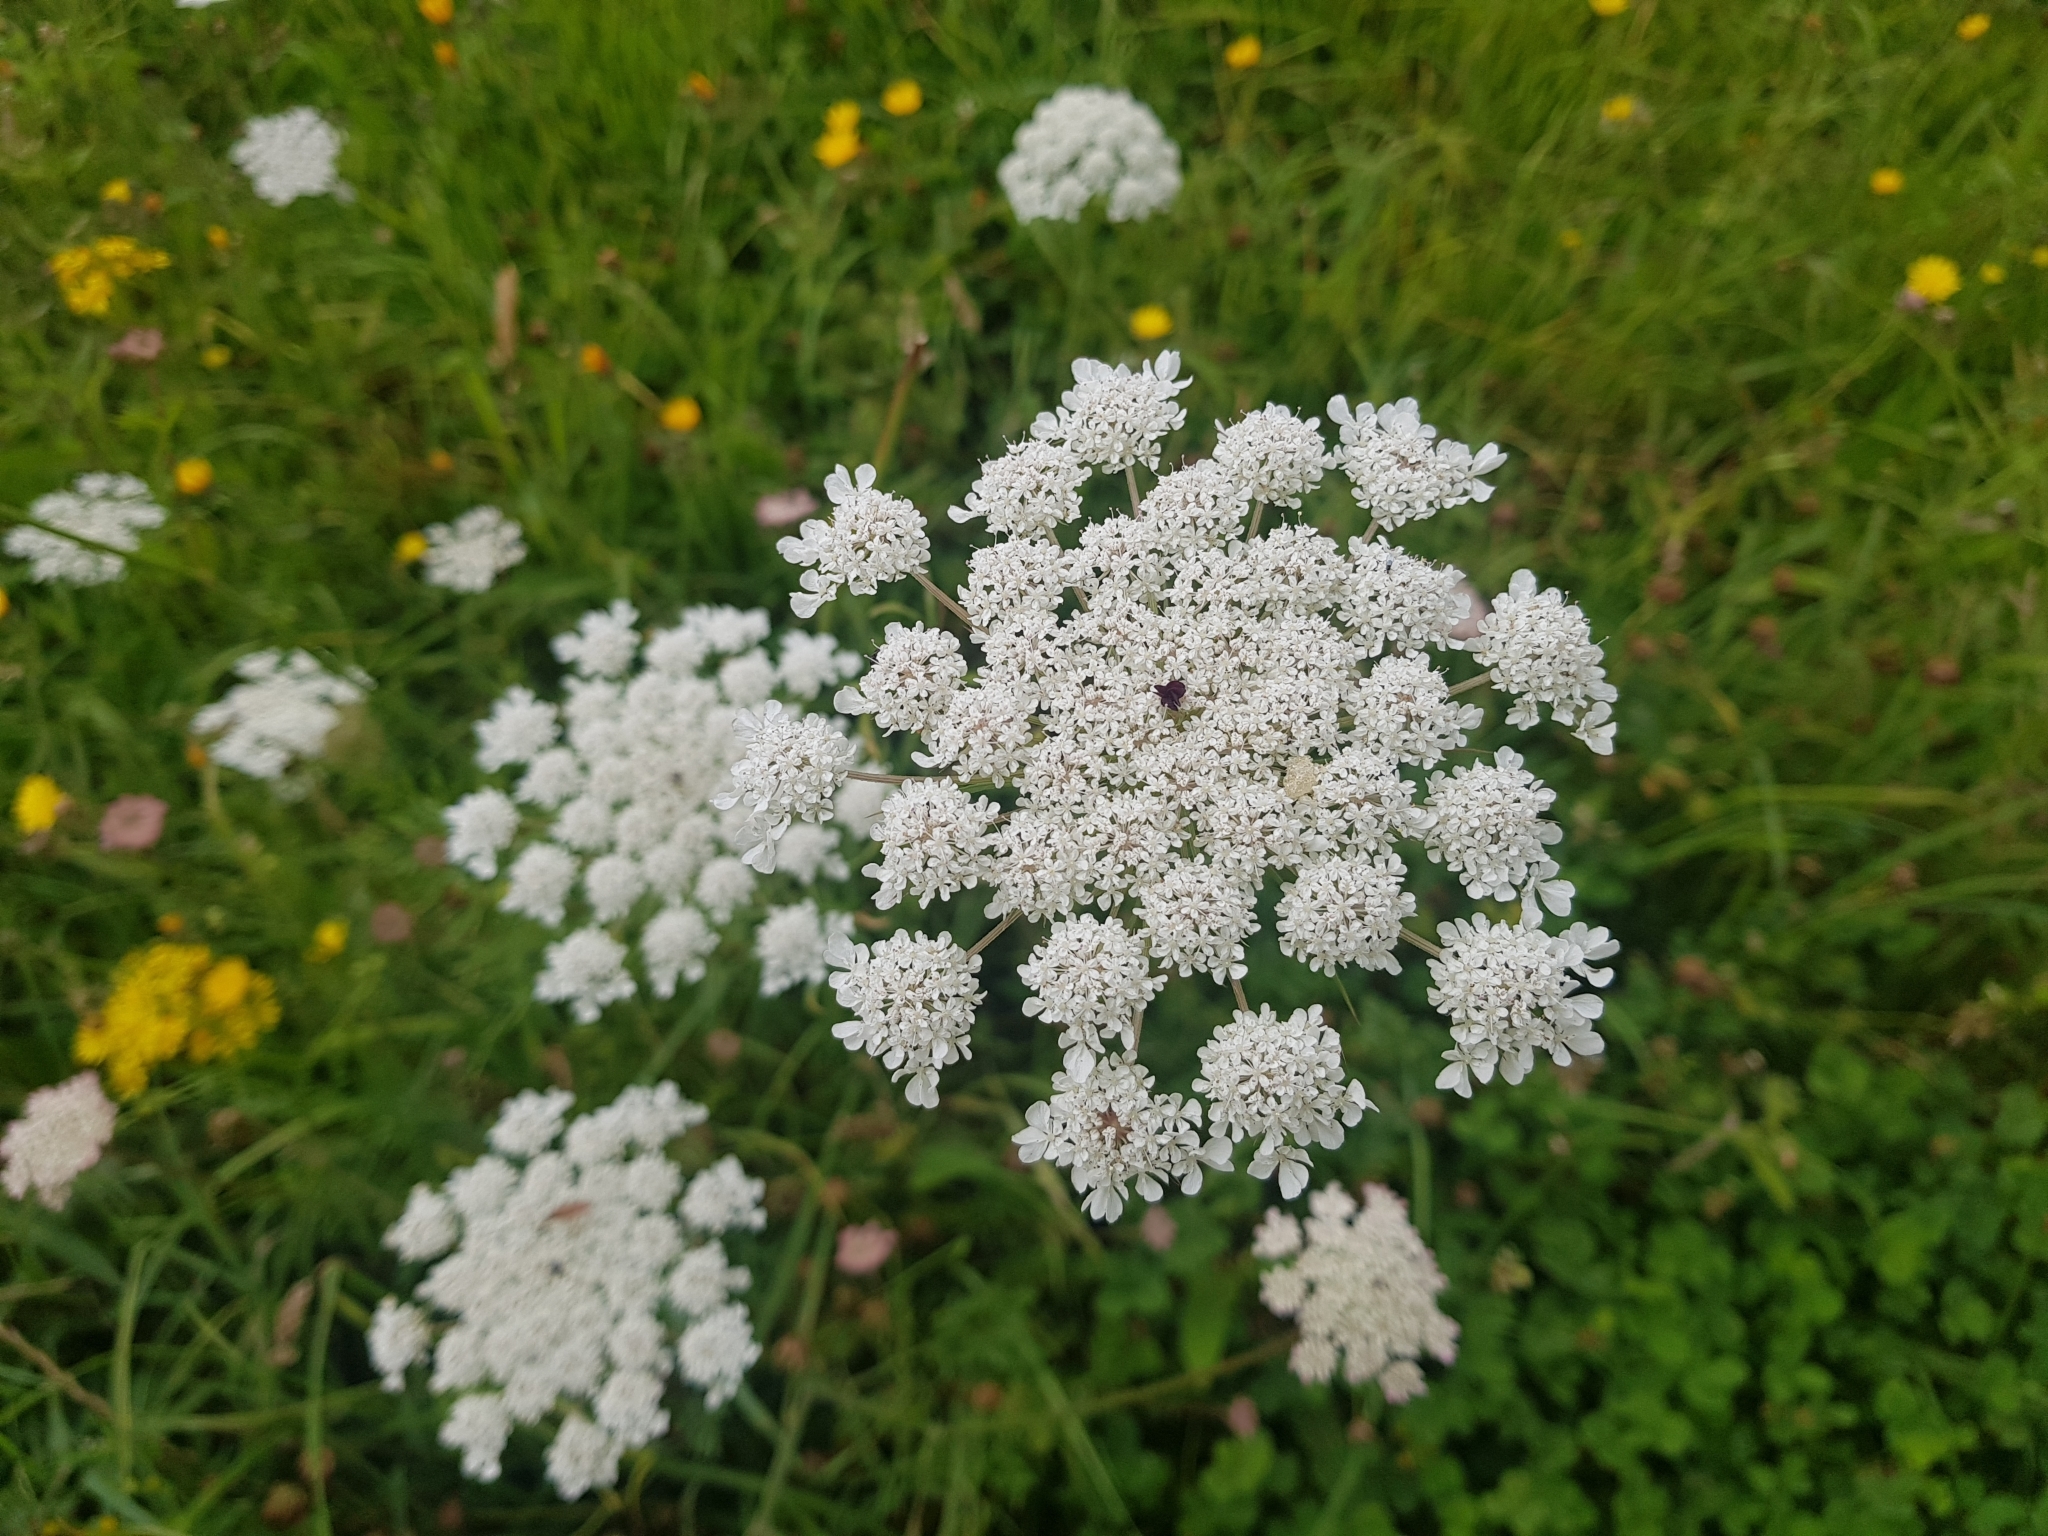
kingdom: Plantae
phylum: Tracheophyta
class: Magnoliopsida
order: Apiales
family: Apiaceae
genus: Daucus
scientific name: Daucus carota
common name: Wild carrot
